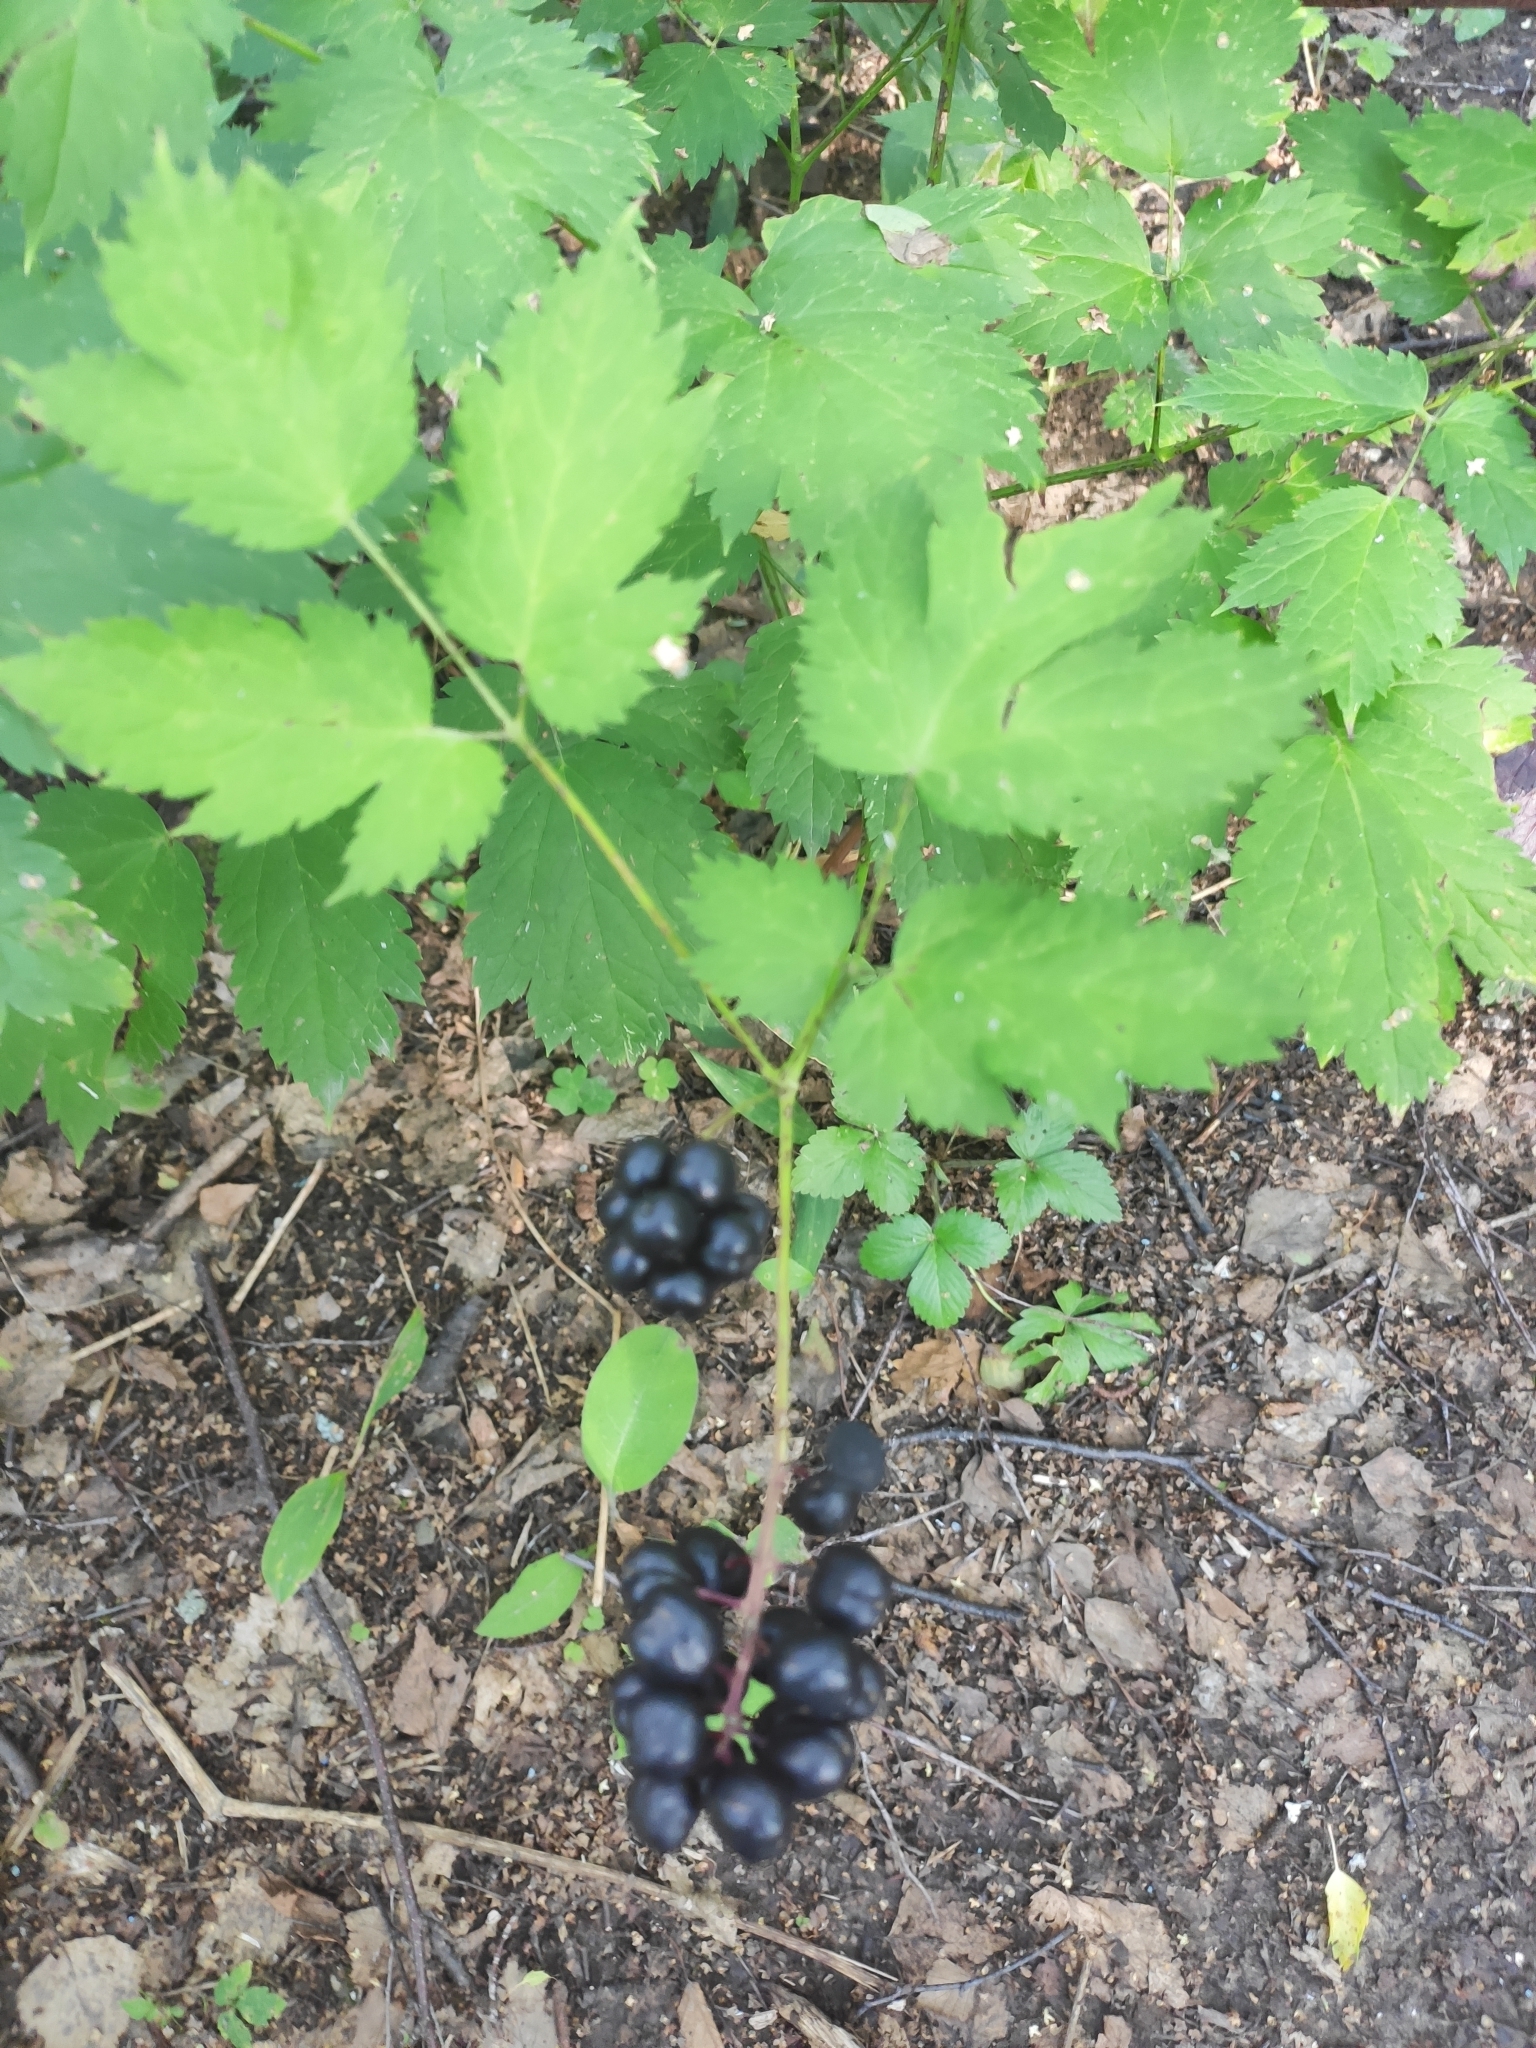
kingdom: Plantae
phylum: Tracheophyta
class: Magnoliopsida
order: Ranunculales
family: Ranunculaceae
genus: Actaea
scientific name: Actaea spicata
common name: Baneberry
